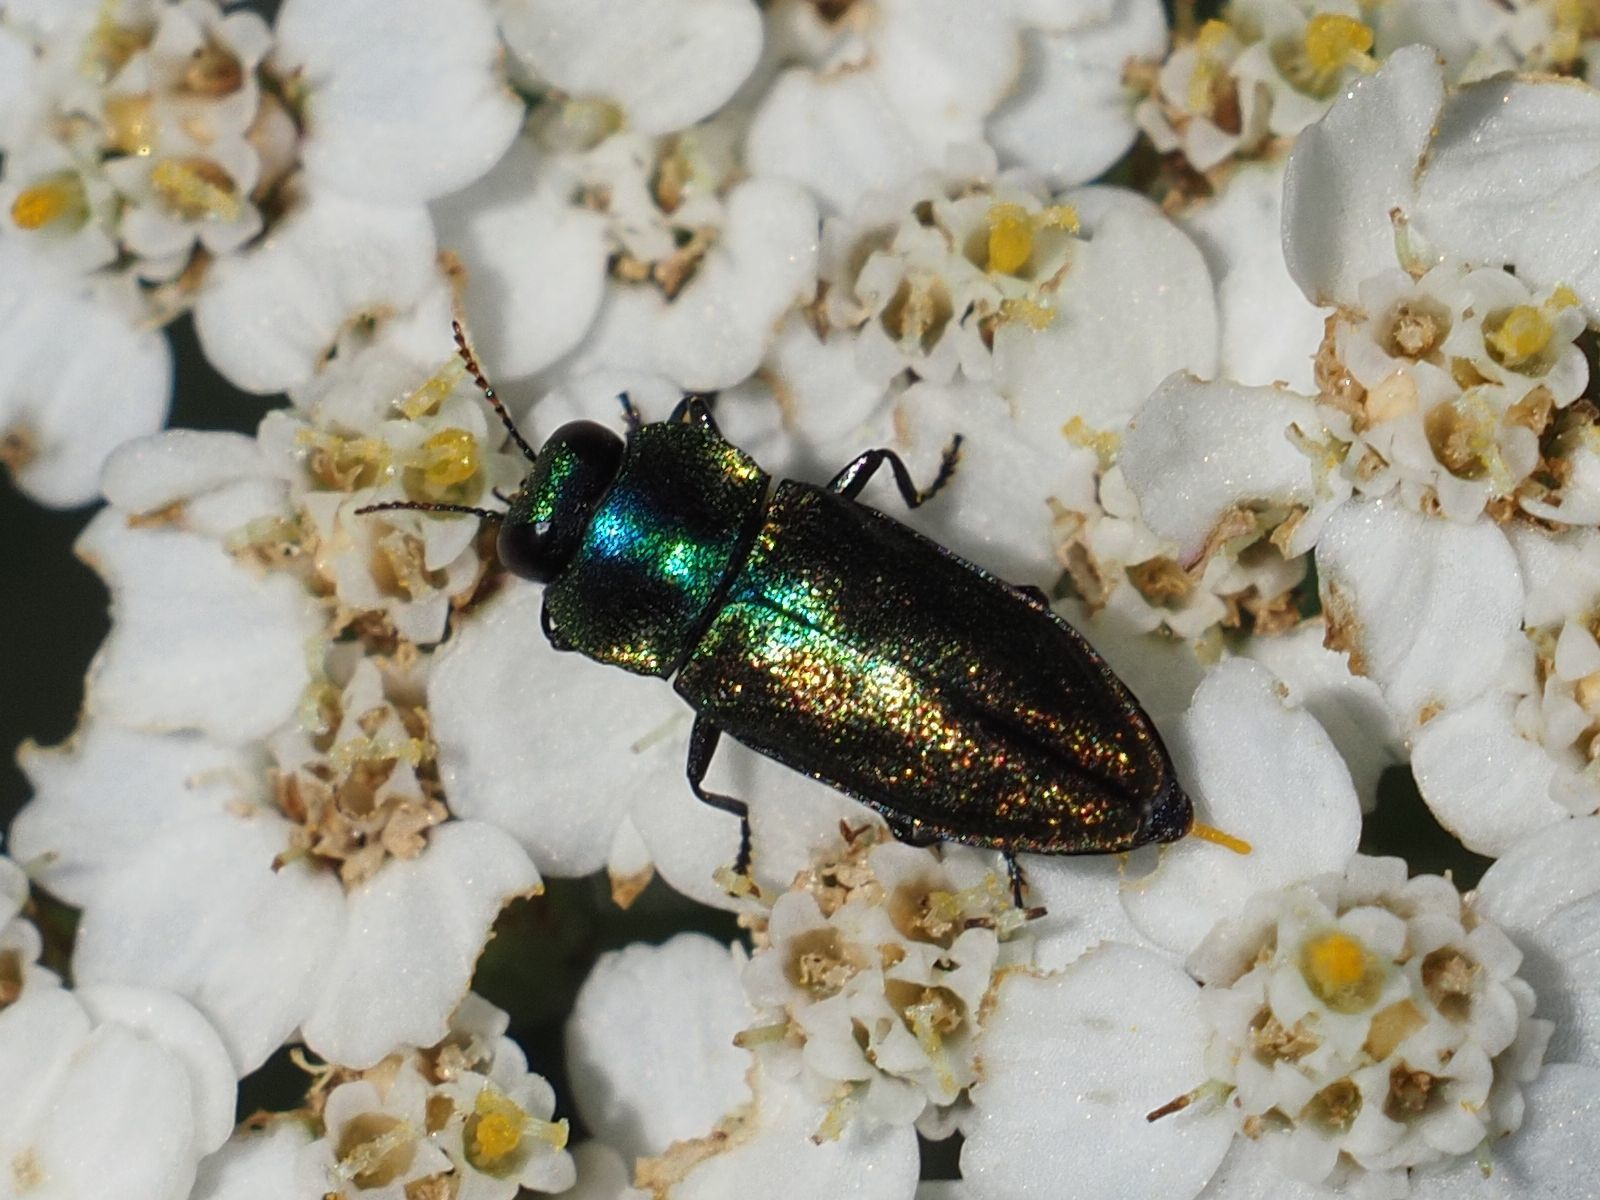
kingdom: Animalia
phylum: Arthropoda
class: Insecta
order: Coleoptera
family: Buprestidae
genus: Anthaxia
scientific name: Anthaxia podolica
